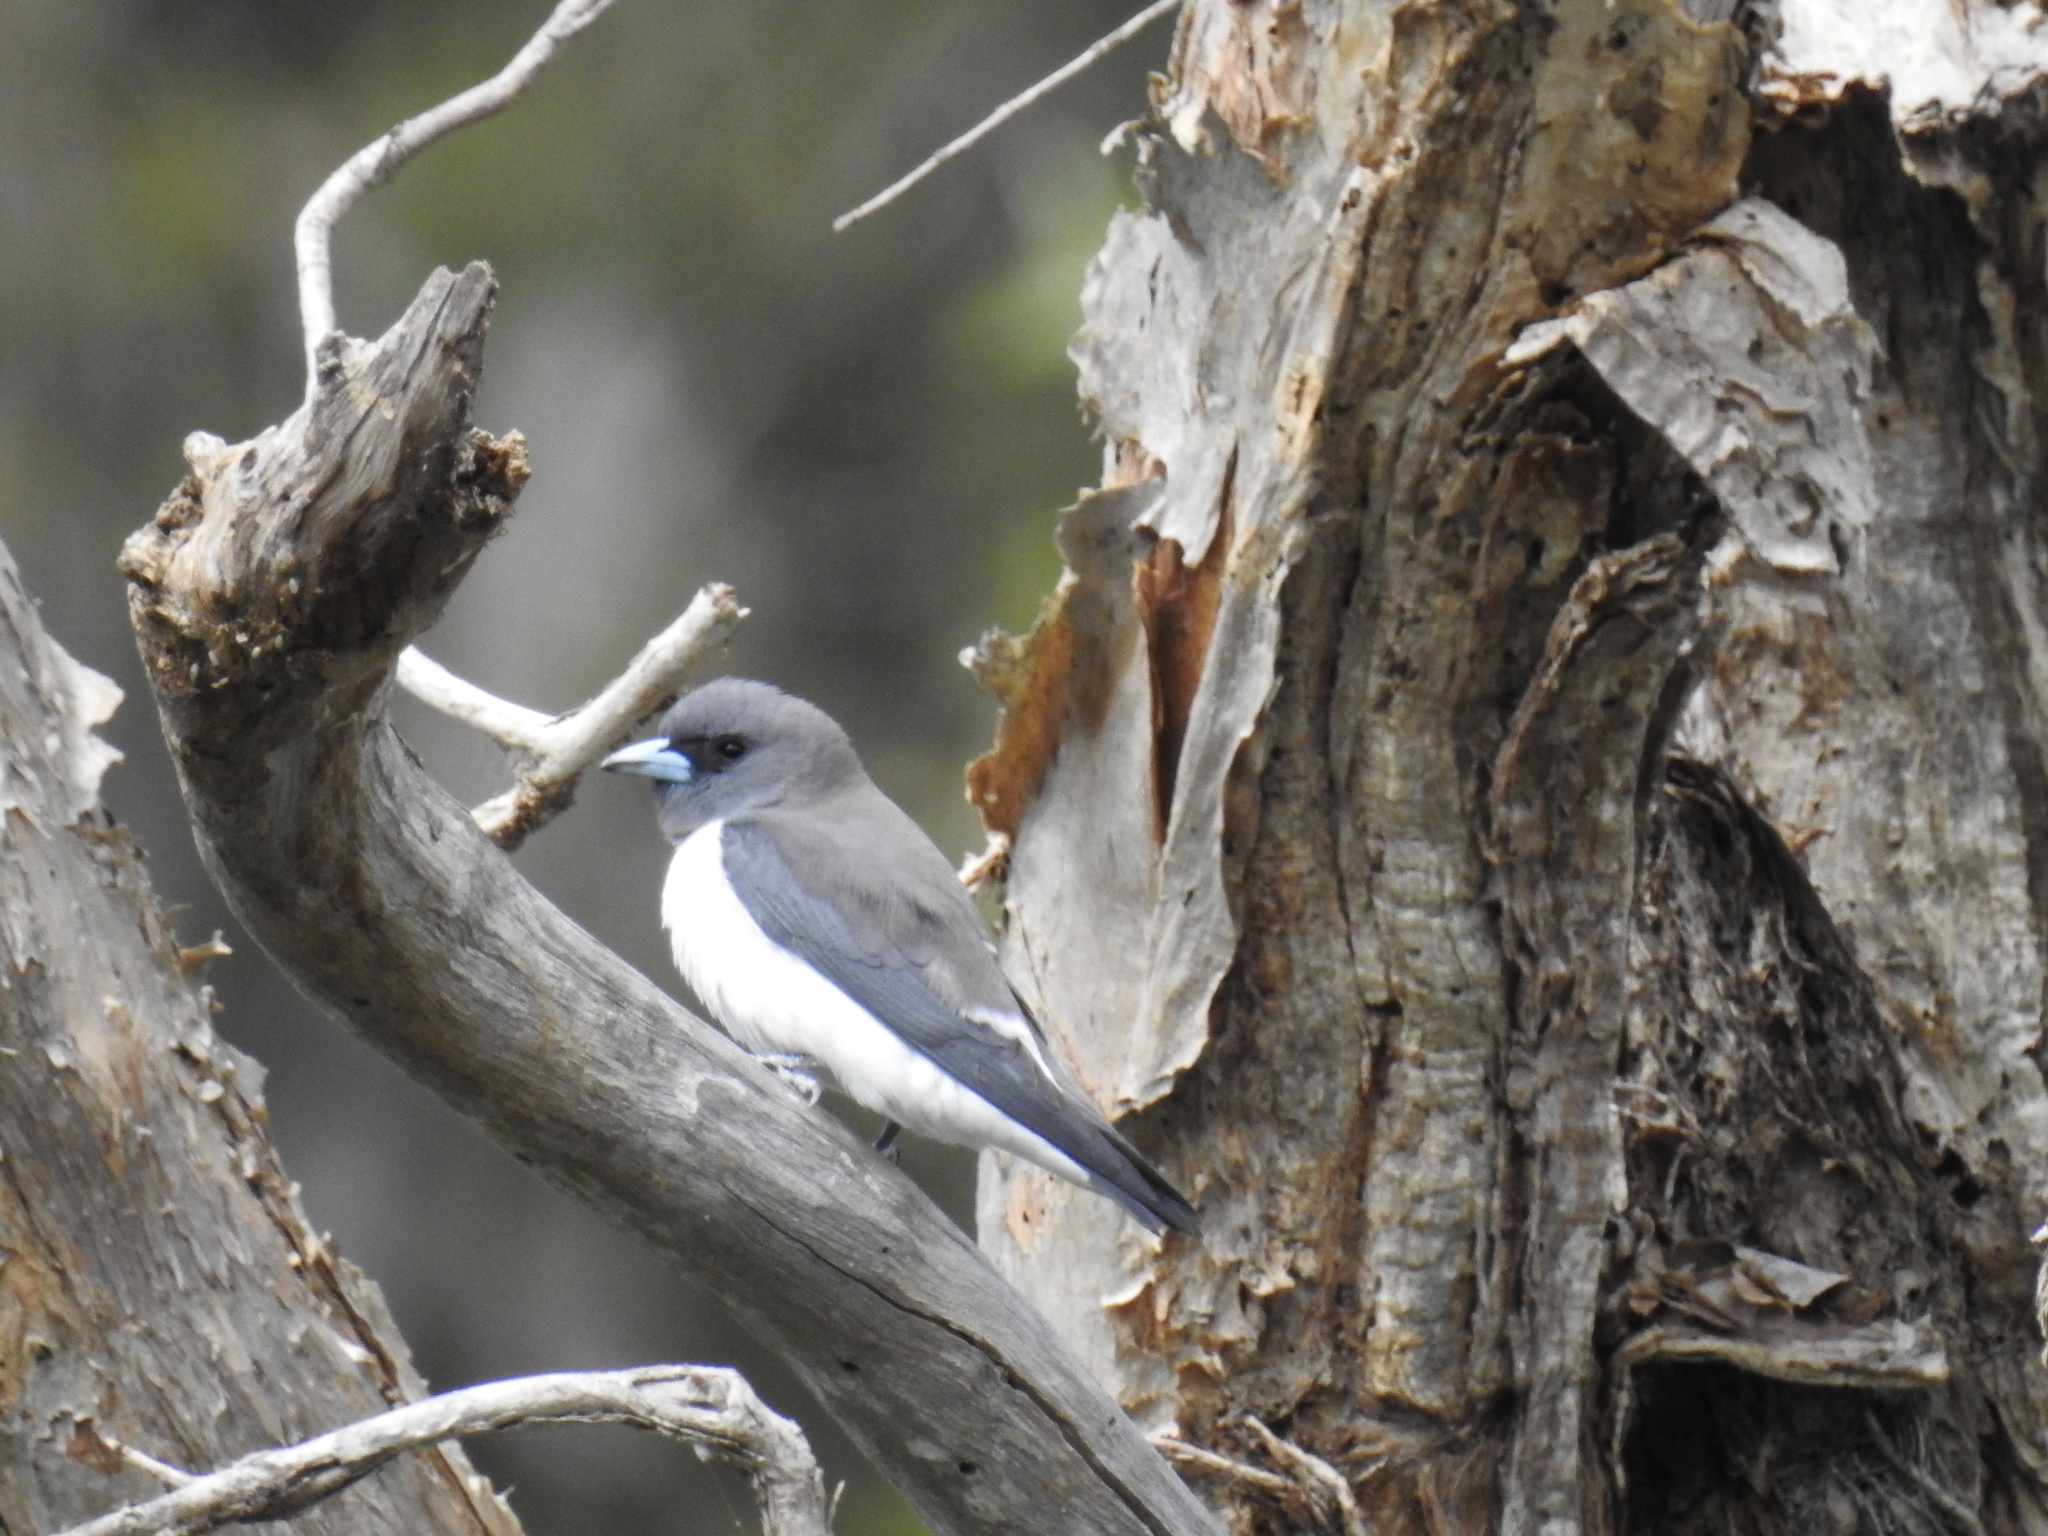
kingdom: Animalia
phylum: Chordata
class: Aves
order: Passeriformes
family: Artamidae
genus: Artamus
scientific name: Artamus leucoryn
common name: White-breasted woodswallow
